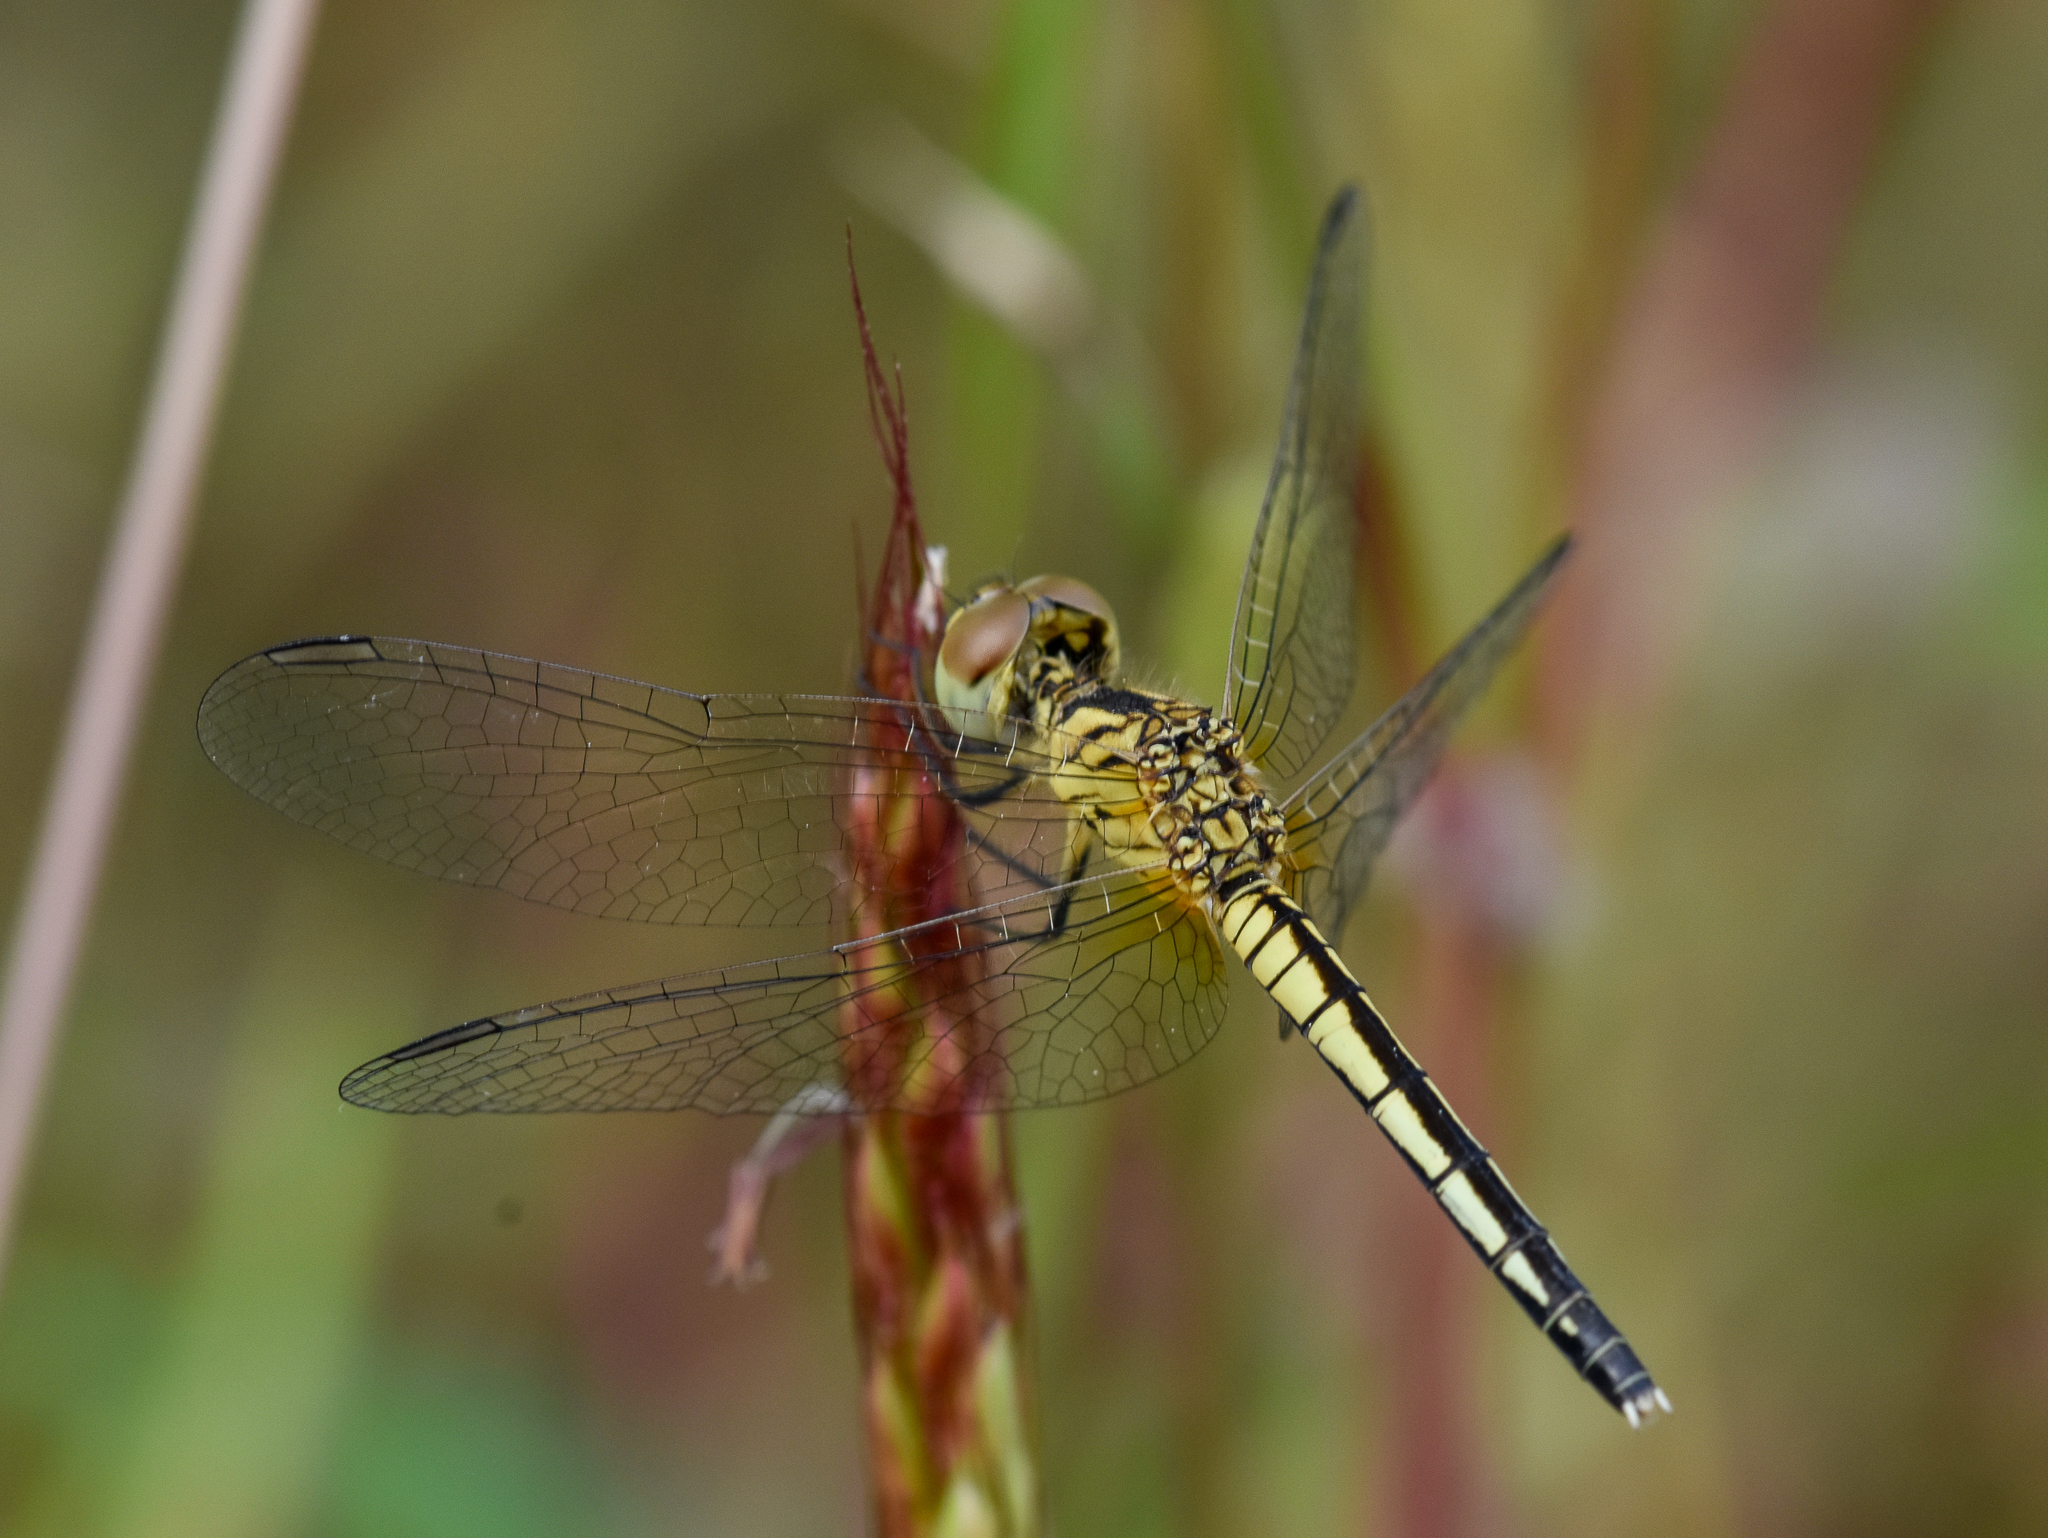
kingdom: Animalia
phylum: Arthropoda
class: Insecta
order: Odonata
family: Libellulidae
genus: Diplacodes
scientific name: Diplacodes nebulosa
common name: Black-tipped percher
